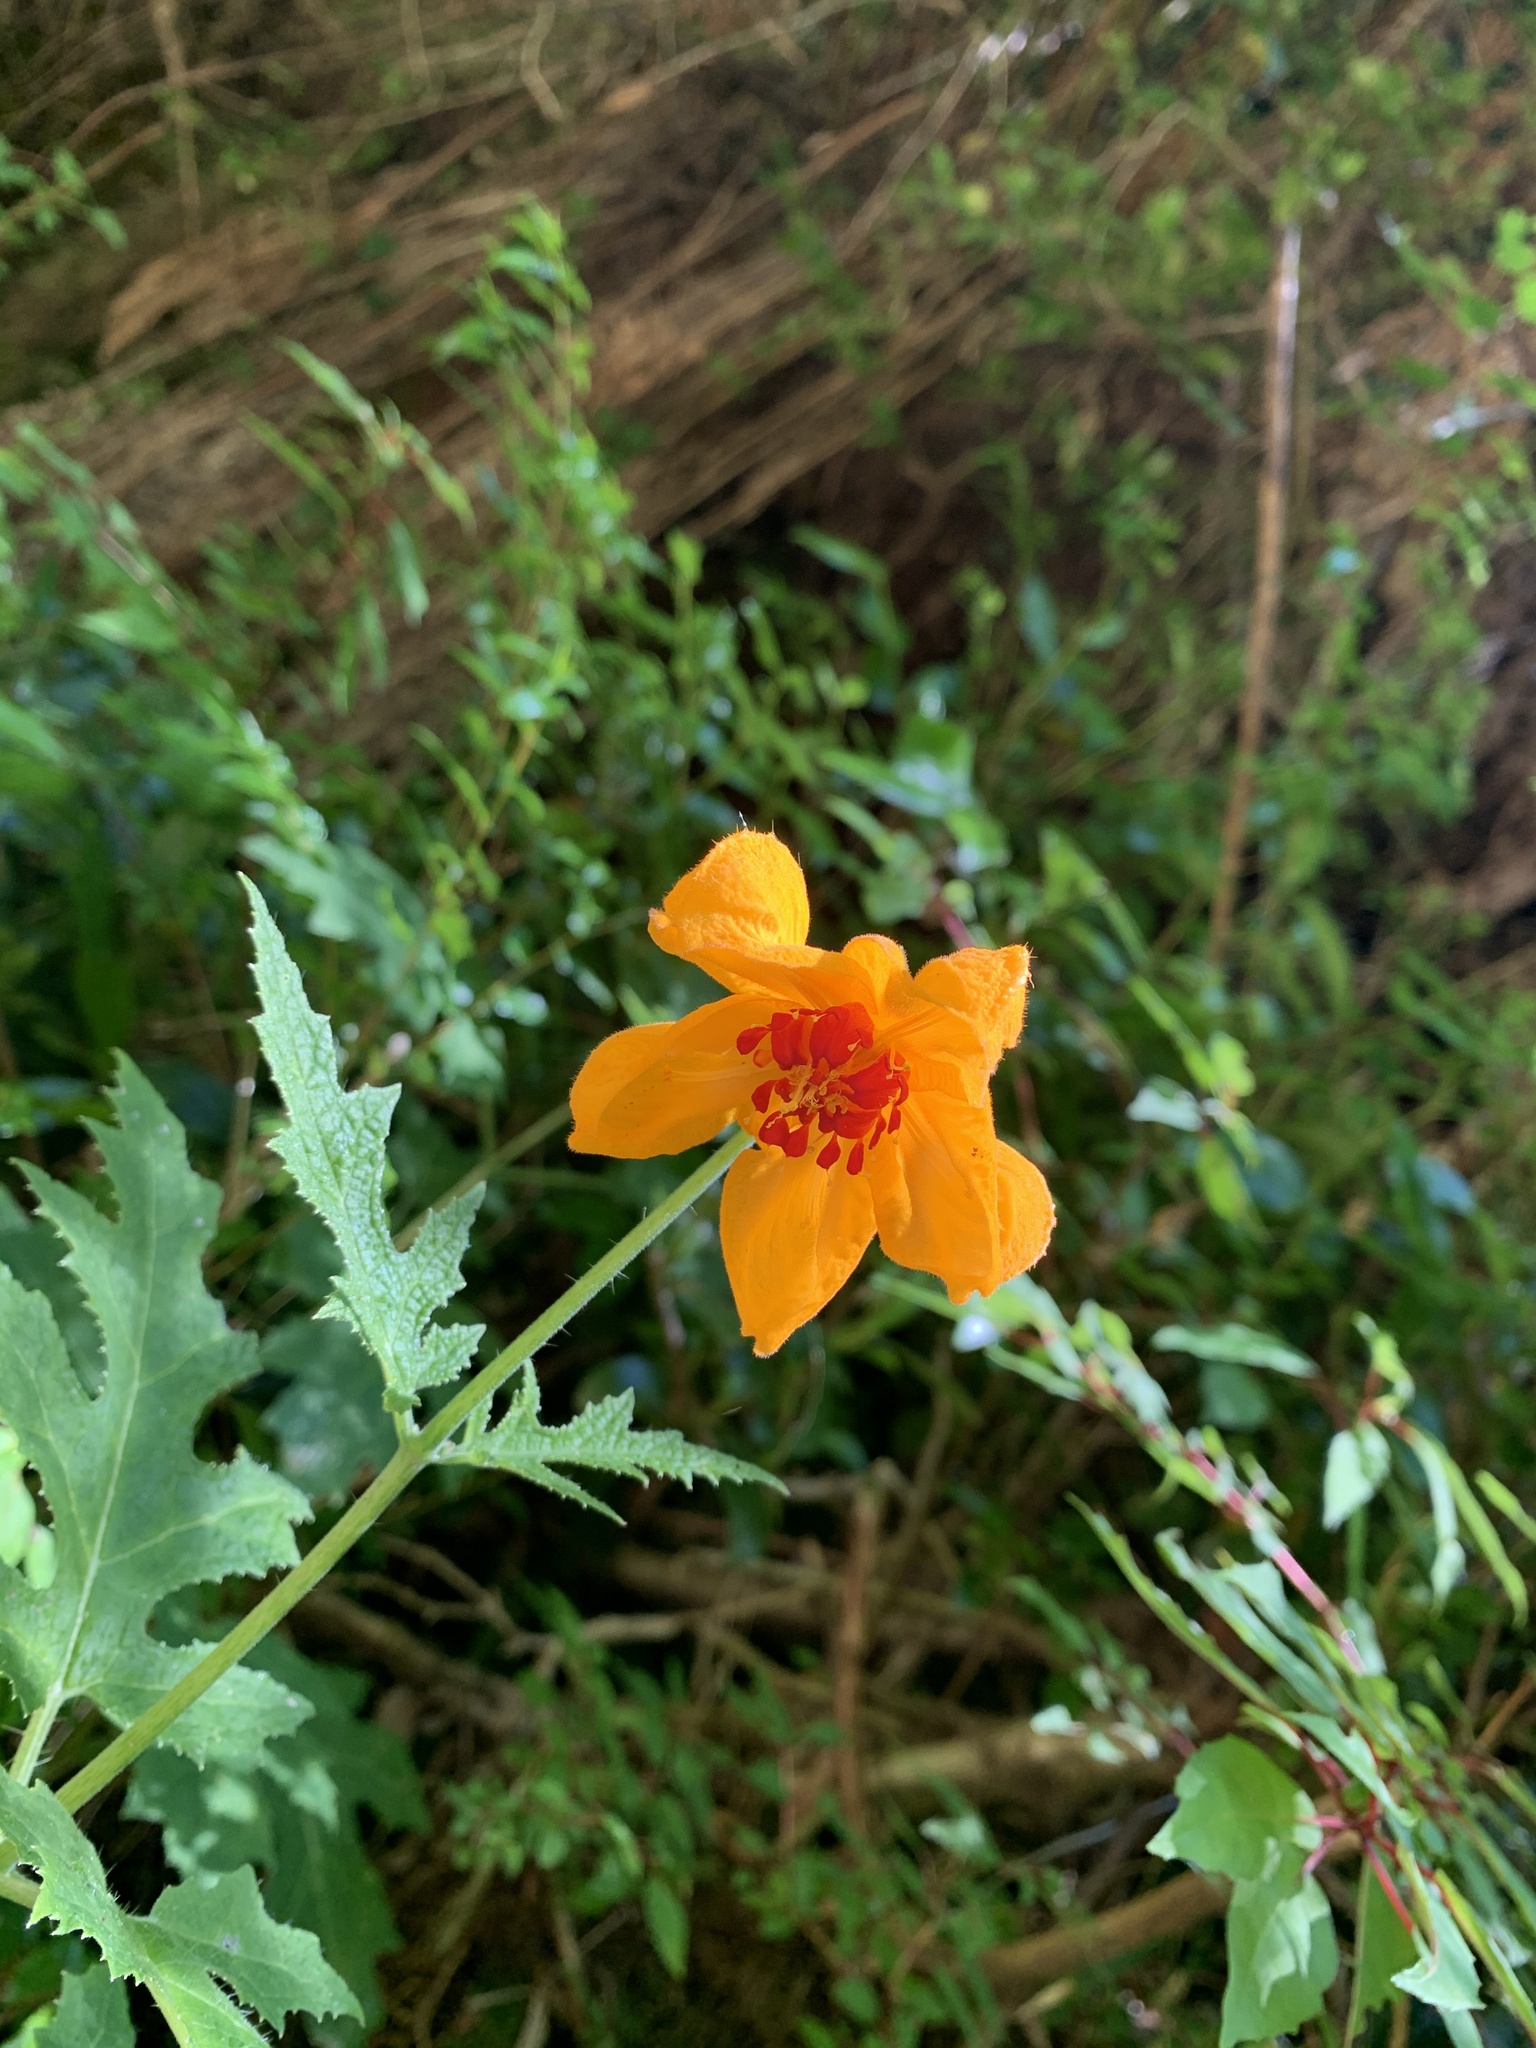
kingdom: Plantae
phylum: Tracheophyta
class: Magnoliopsida
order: Cornales
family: Loasaceae
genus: Loasa
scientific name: Loasa acanthifolia
